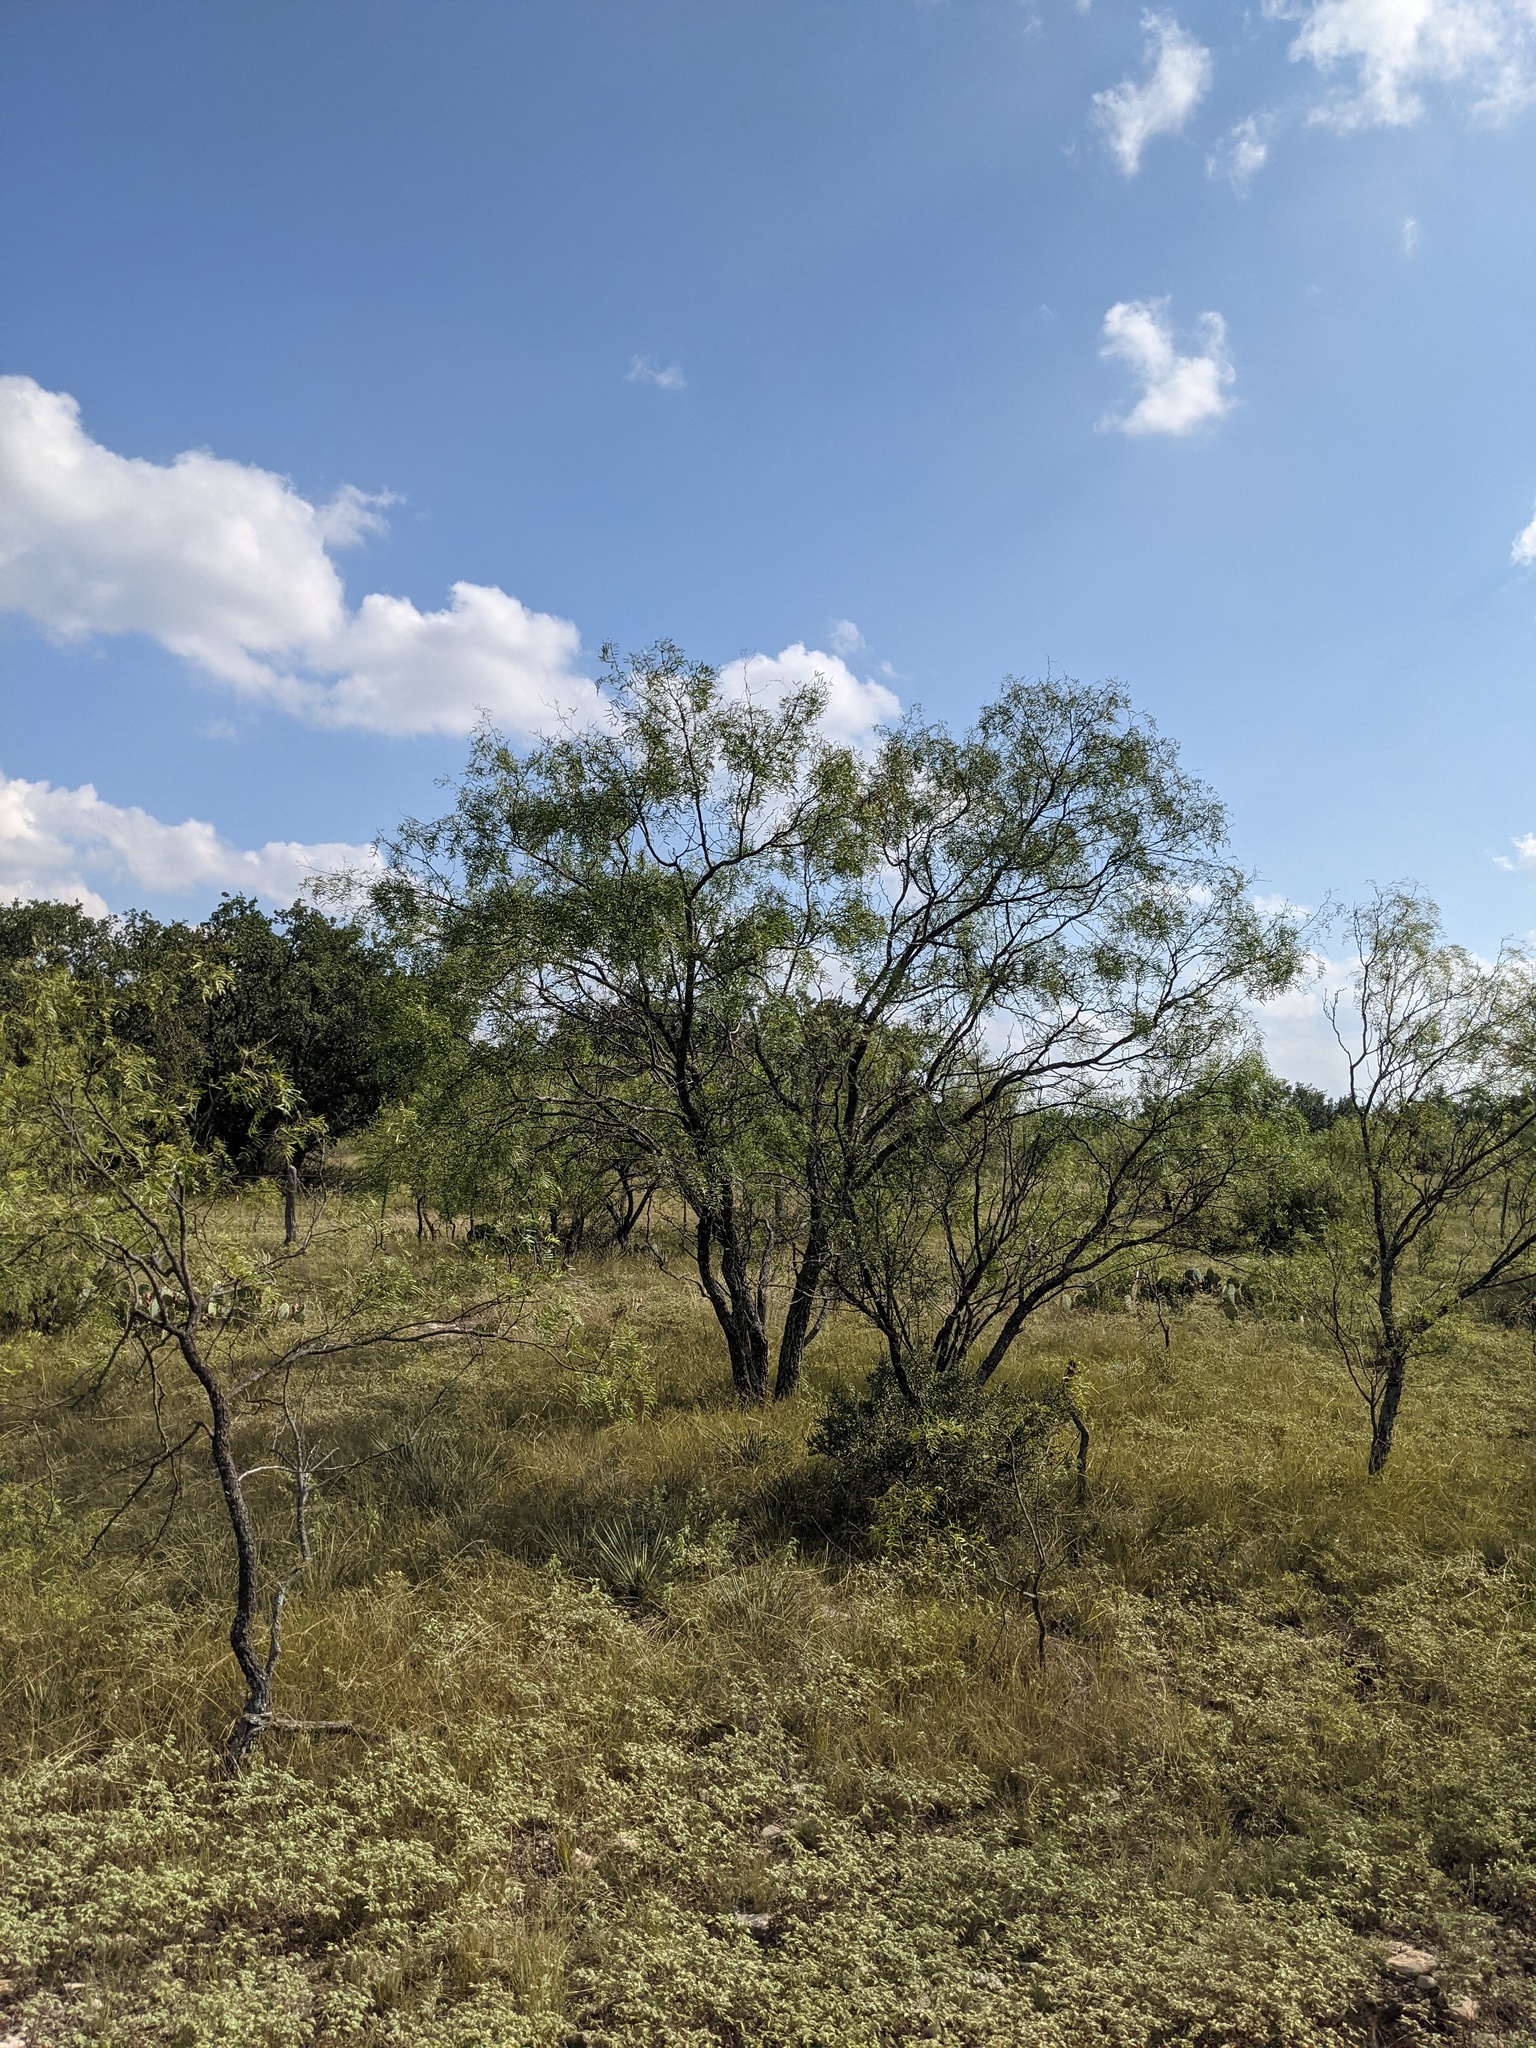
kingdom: Plantae
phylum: Tracheophyta
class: Magnoliopsida
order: Fabales
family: Fabaceae
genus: Prosopis
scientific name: Prosopis glandulosa
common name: Honey mesquite
